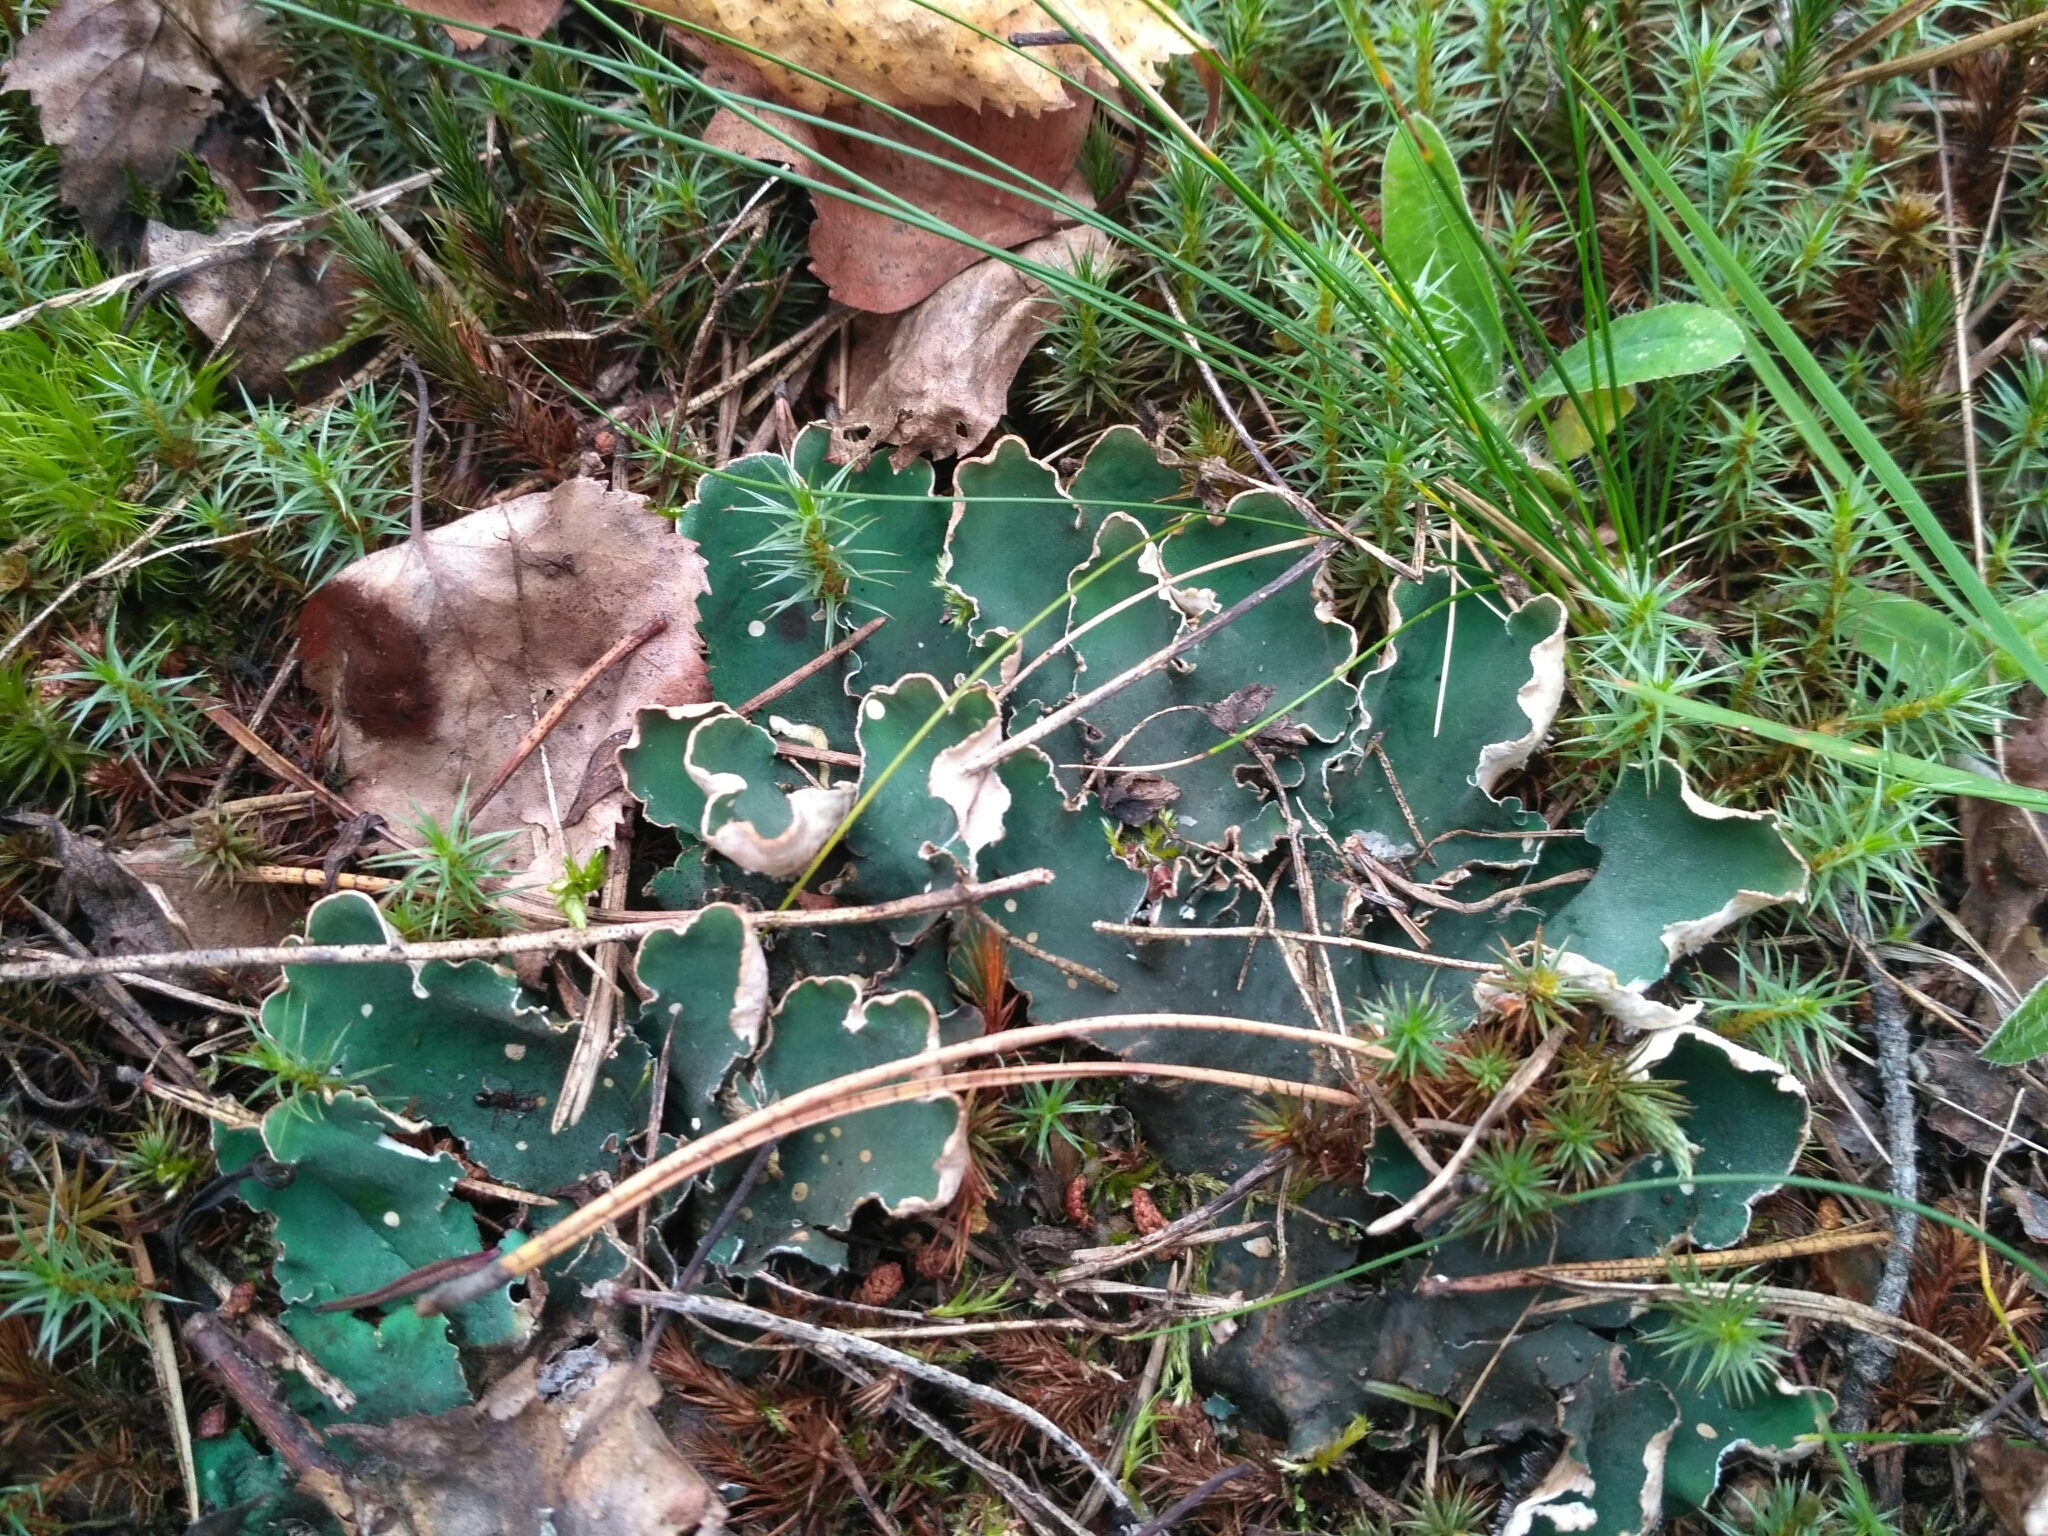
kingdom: Fungi
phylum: Ascomycota
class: Lecanoromycetes
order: Peltigerales
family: Peltigeraceae
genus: Peltigera
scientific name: Peltigera malacea
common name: Matt felt lichen
